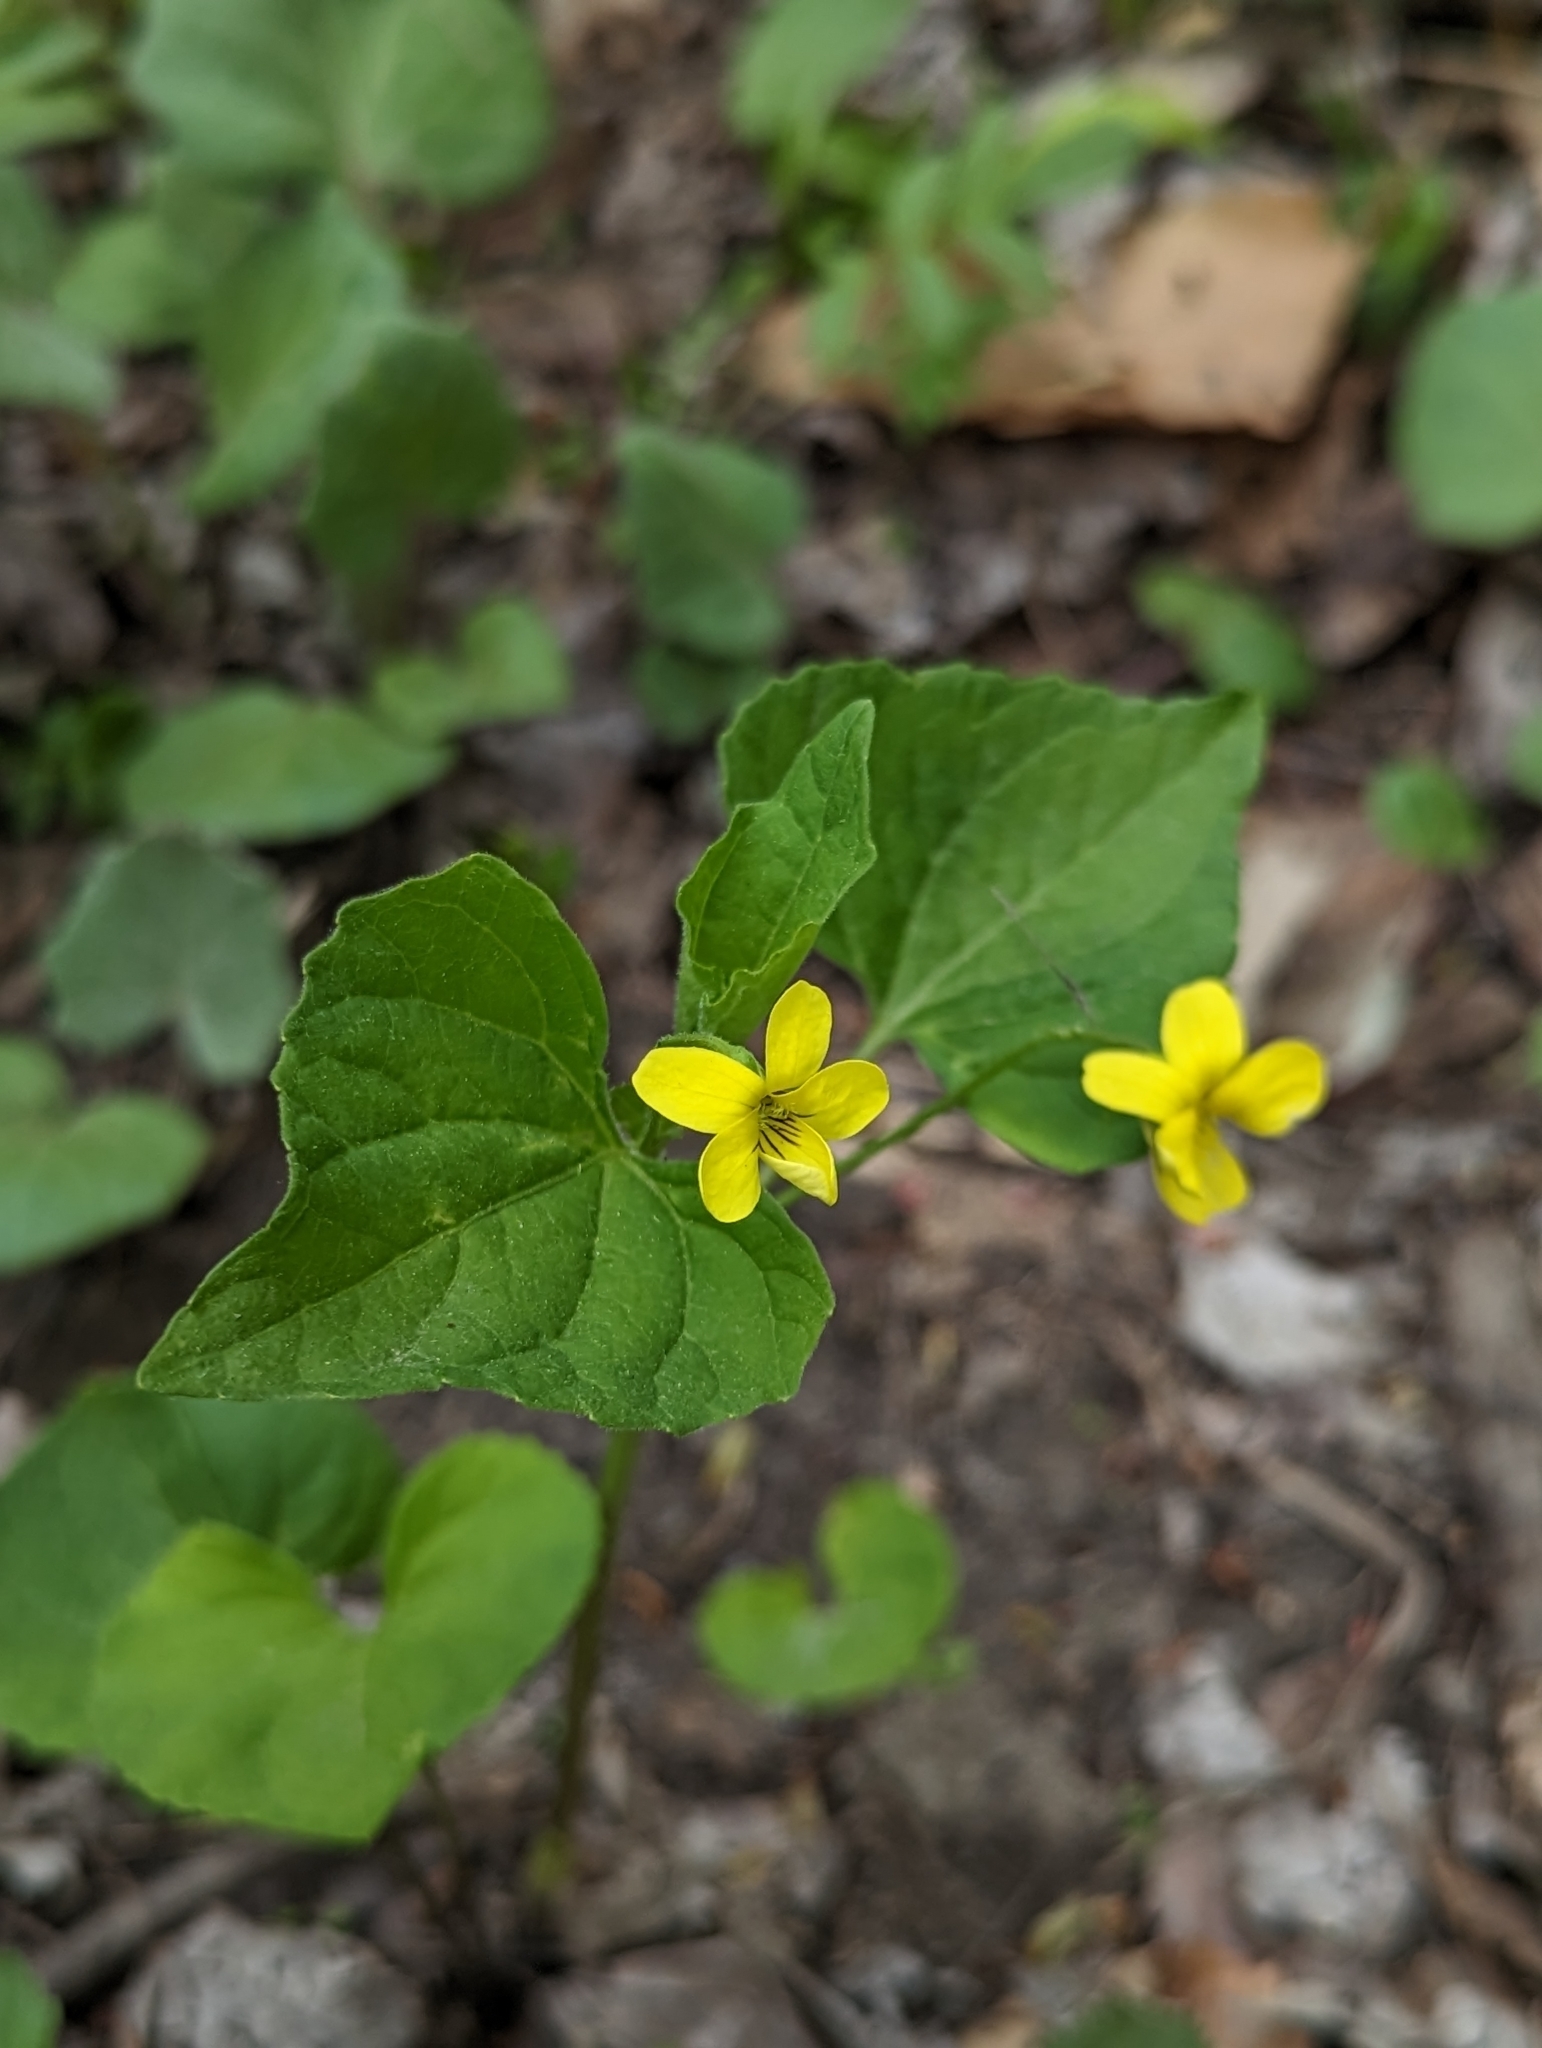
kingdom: Plantae
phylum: Tracheophyta
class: Magnoliopsida
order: Malpighiales
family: Violaceae
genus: Viola
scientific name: Viola eriocarpa
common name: Smooth yellow violet
